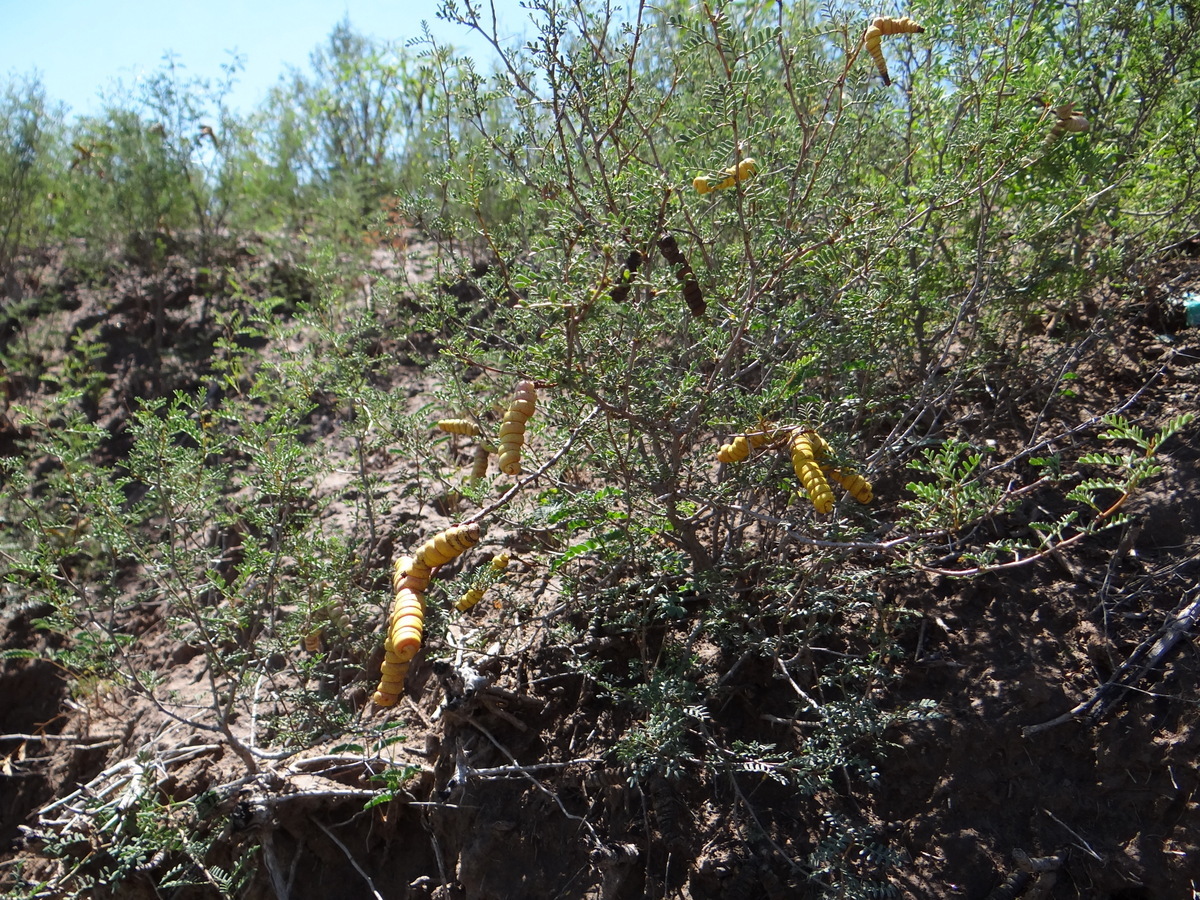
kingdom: Plantae
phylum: Tracheophyta
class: Magnoliopsida
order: Fabales
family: Fabaceae
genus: Prosopis
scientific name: Prosopis strombulifera
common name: Creeping mesquite
